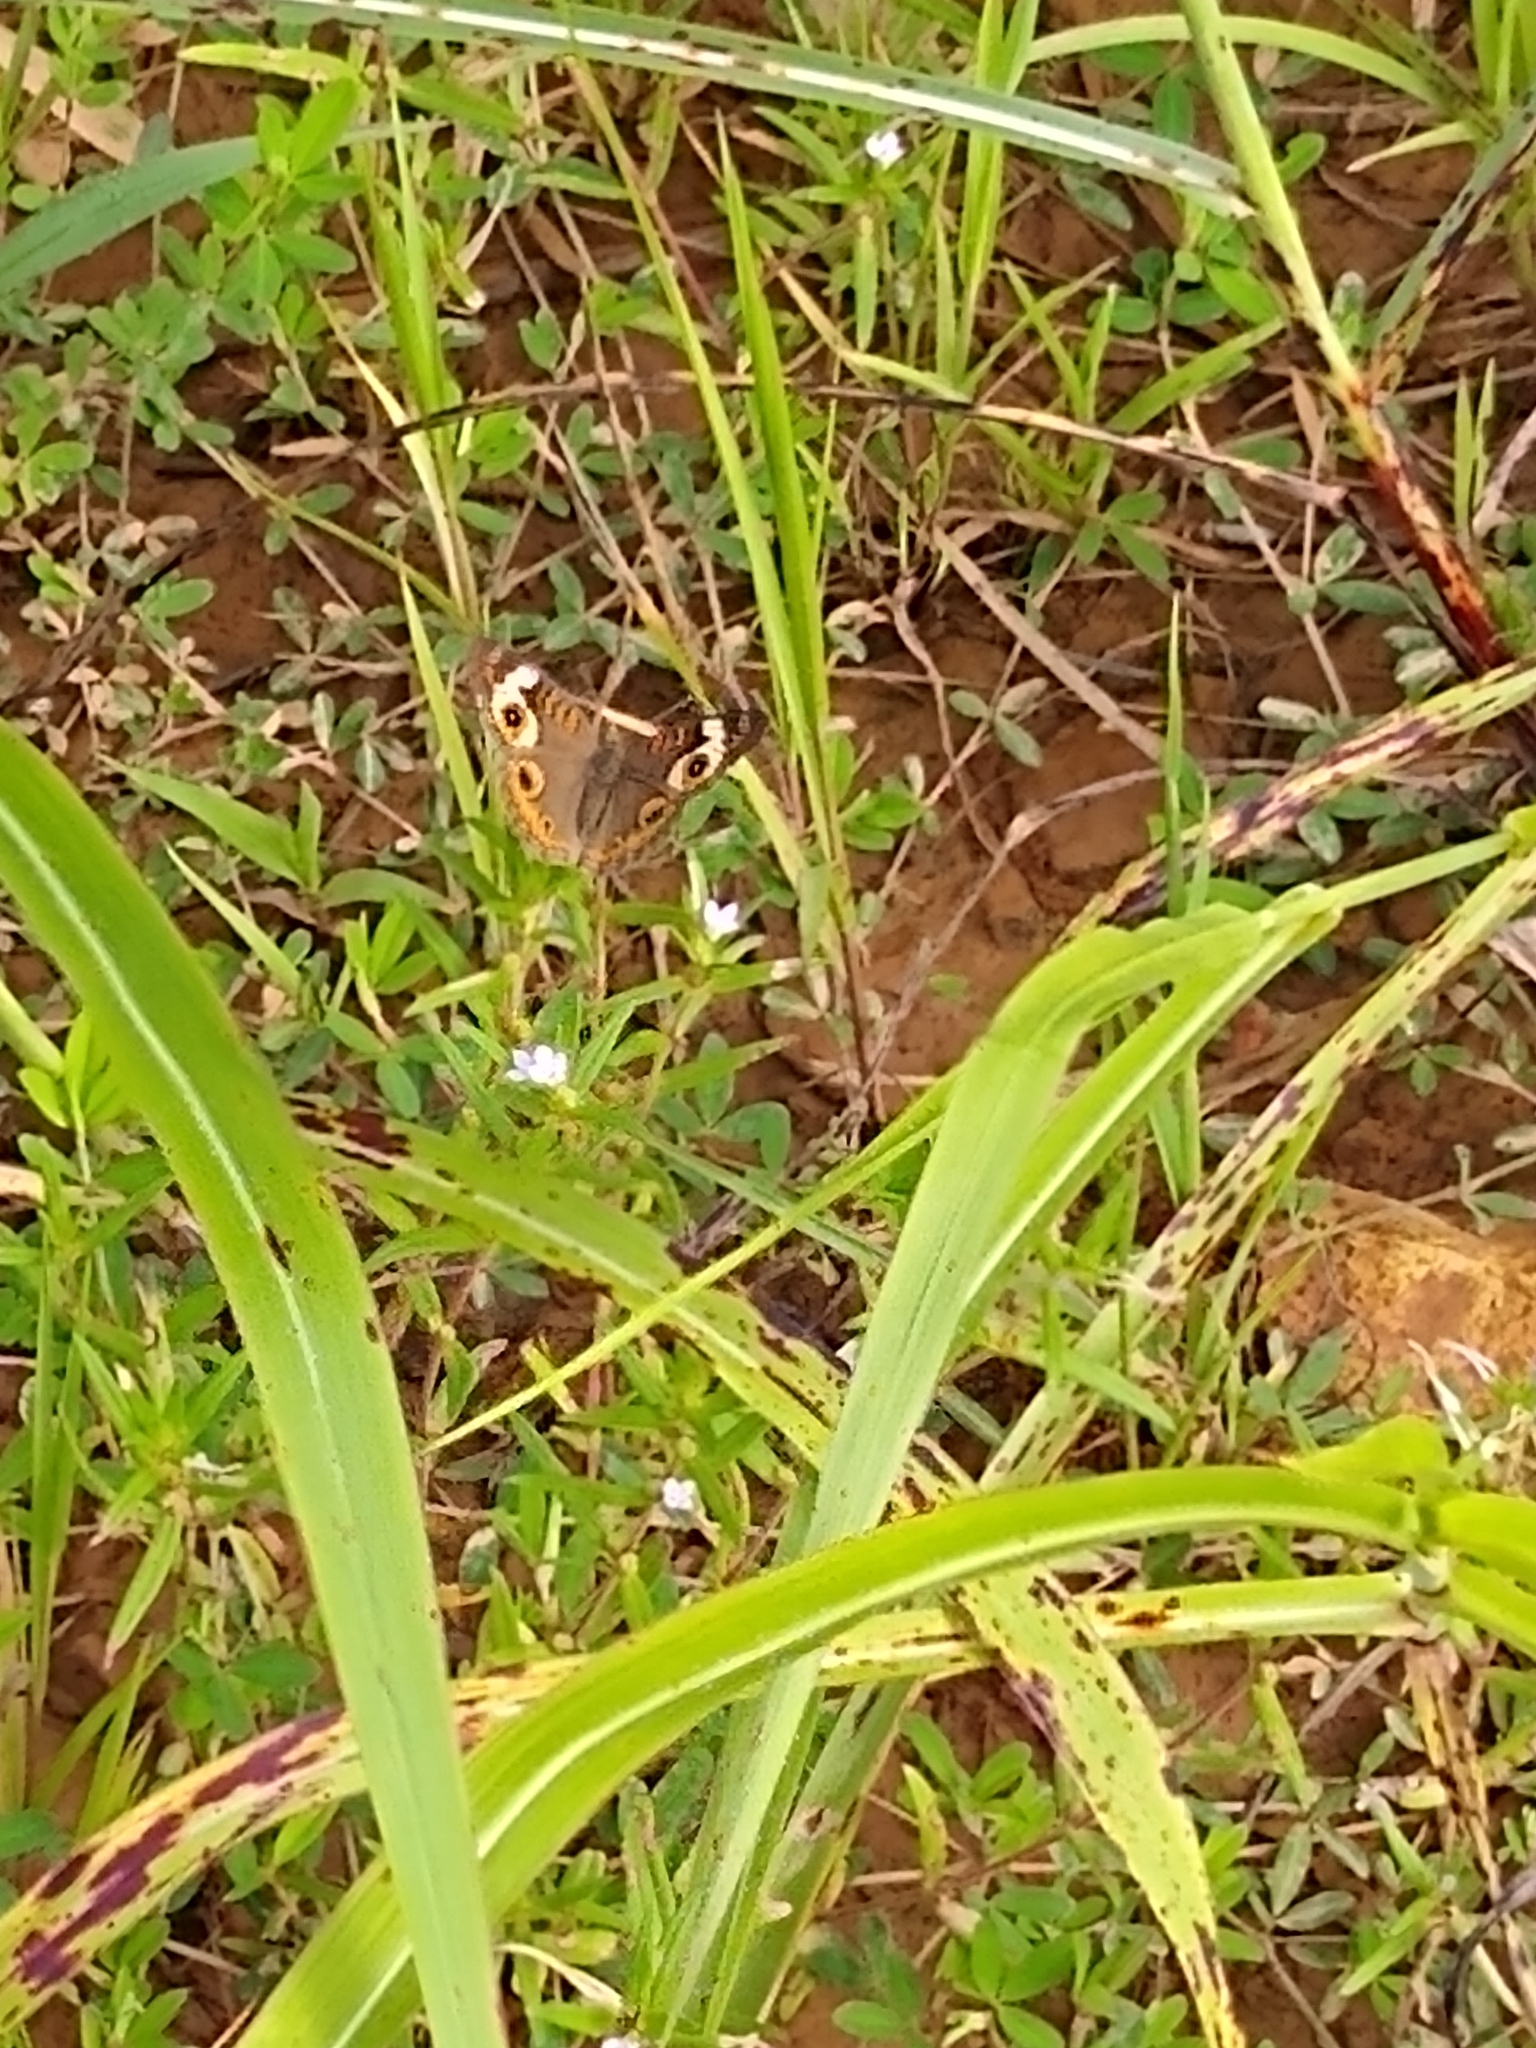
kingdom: Animalia
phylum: Arthropoda
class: Insecta
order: Lepidoptera
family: Nymphalidae
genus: Junonia
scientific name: Junonia coenia
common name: Common buckeye
